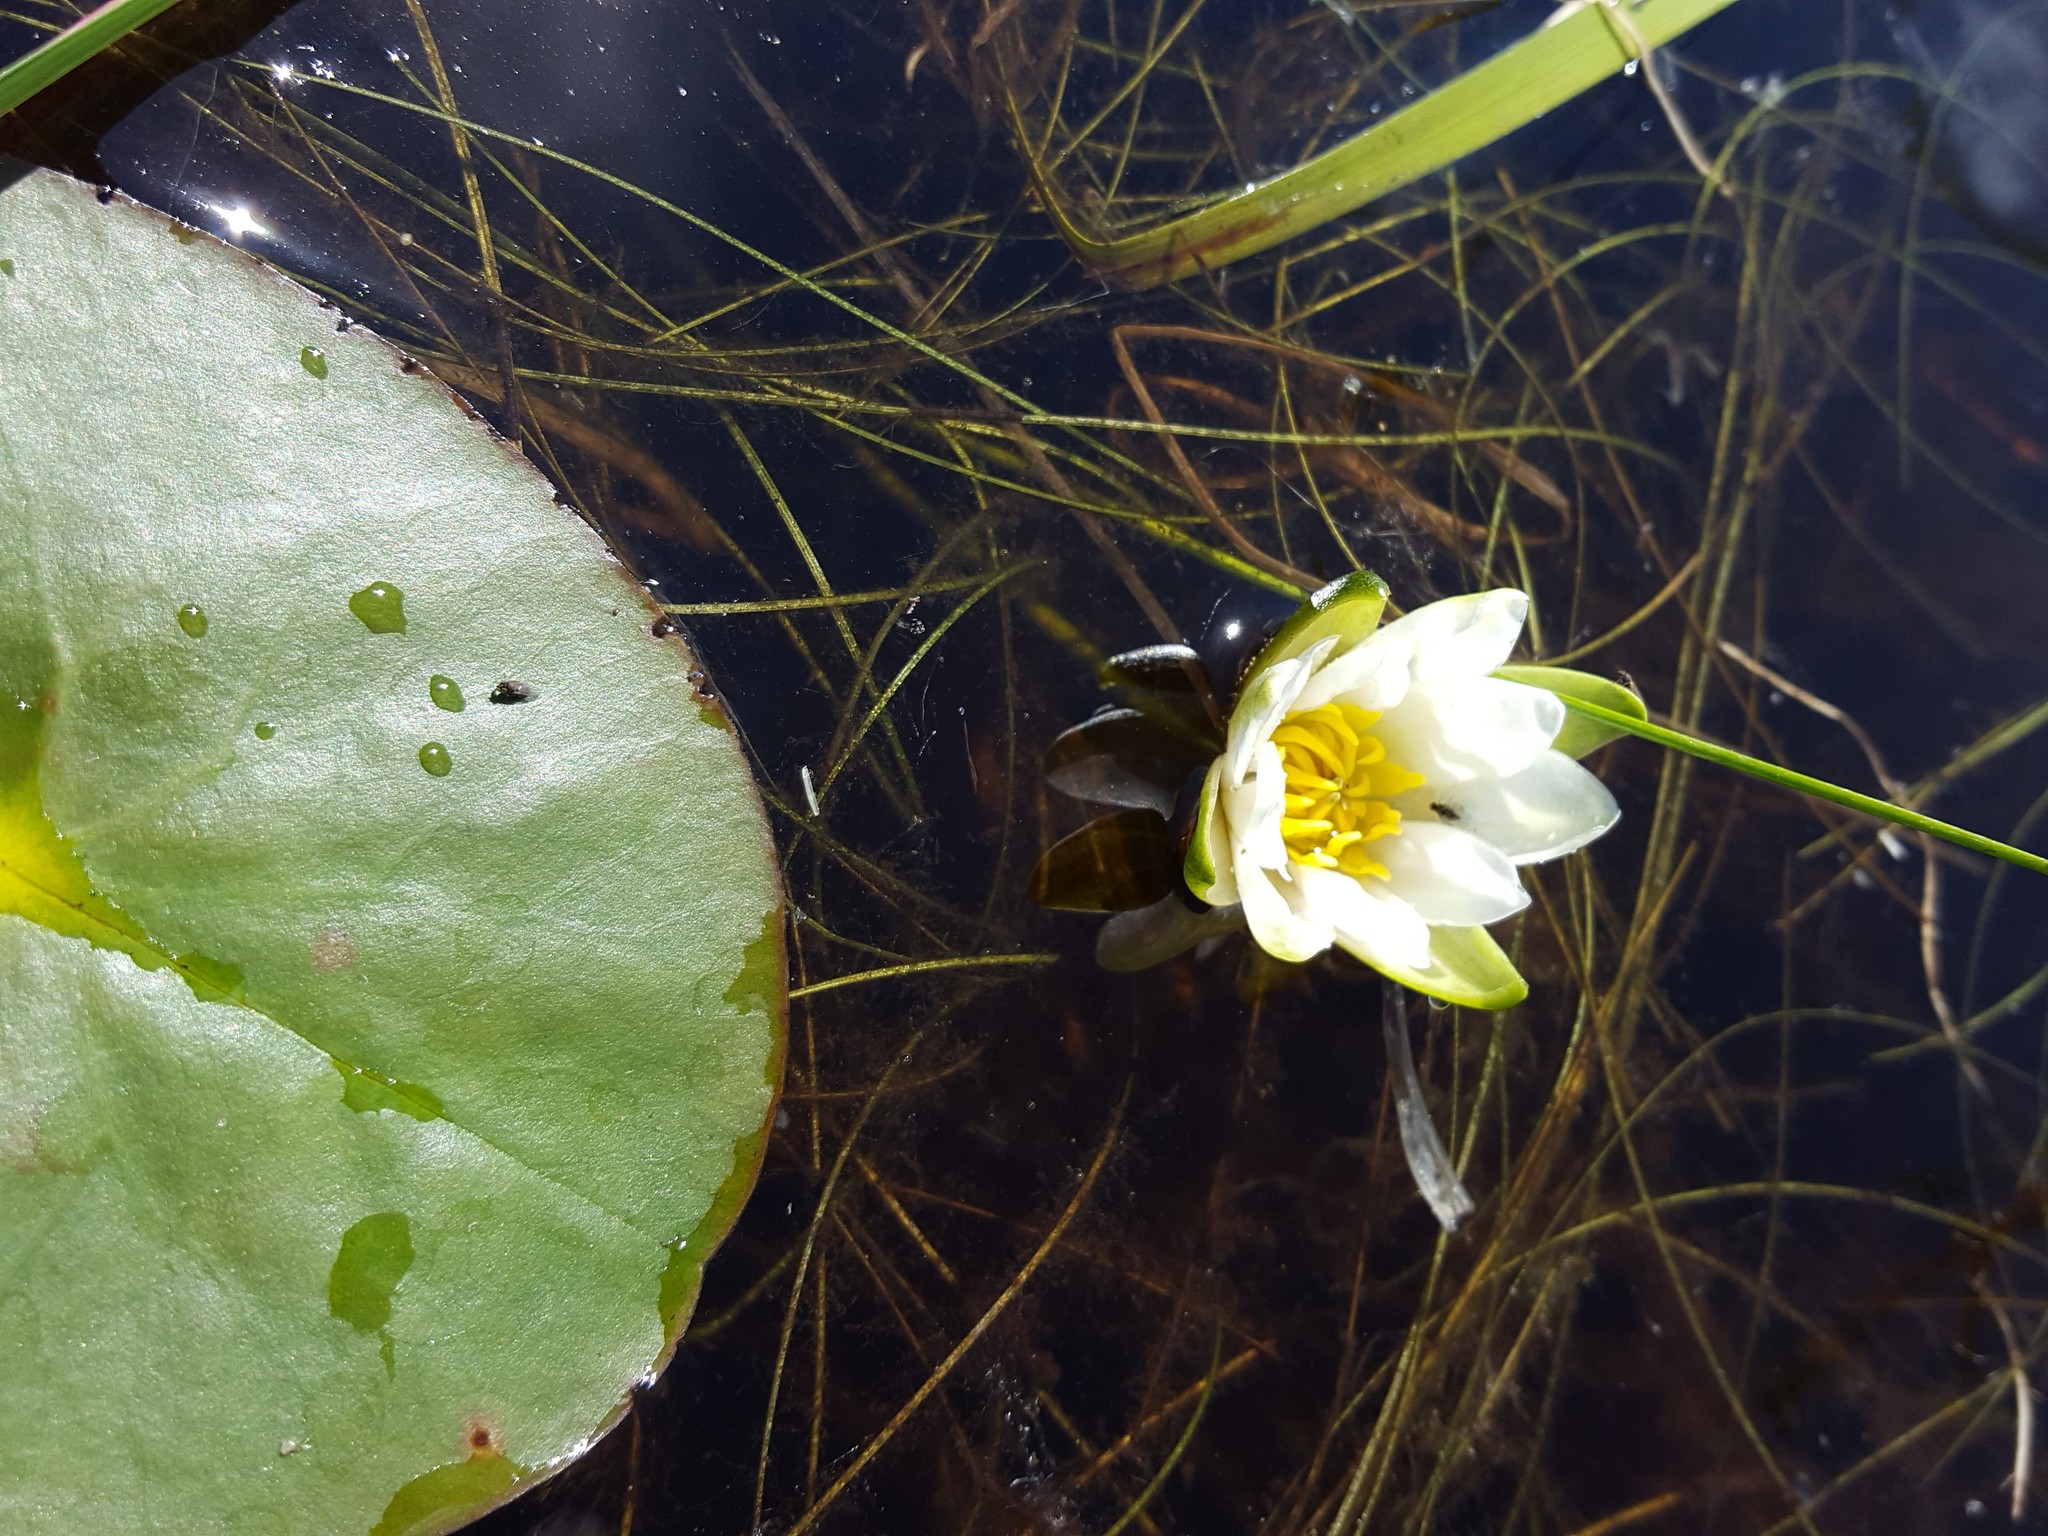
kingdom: Plantae
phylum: Tracheophyta
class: Magnoliopsida
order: Nymphaeales
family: Nymphaeaceae
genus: Nymphaea
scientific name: Nymphaea leibergii
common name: Dwarf water-lily
